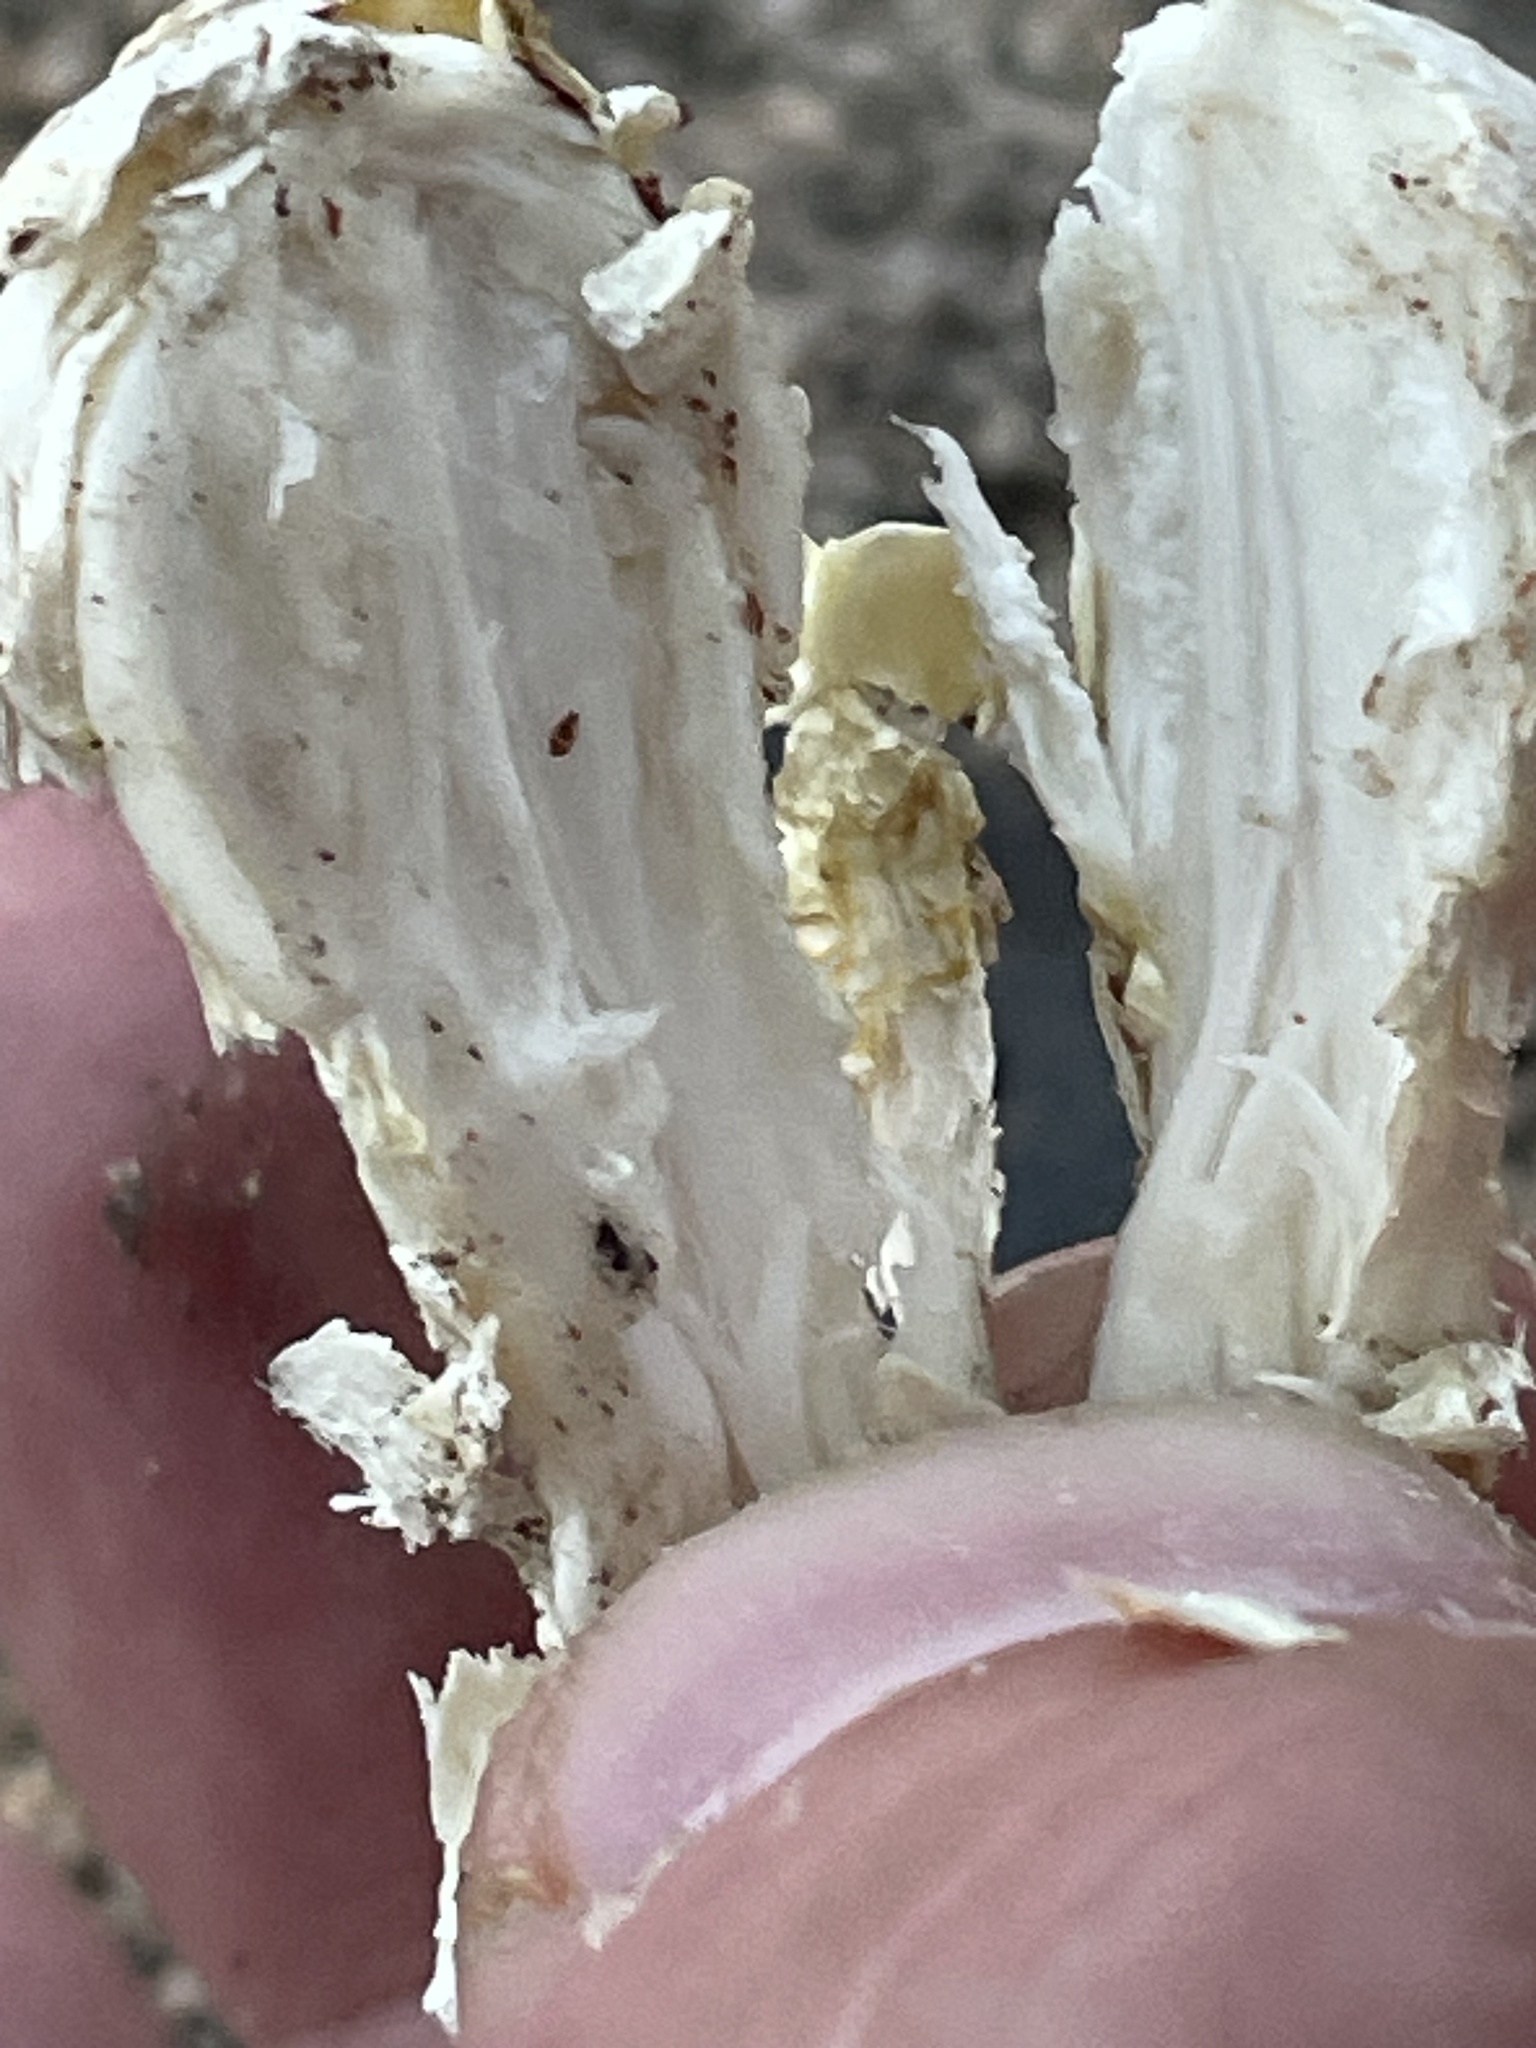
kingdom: Fungi
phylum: Basidiomycota
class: Agaricomycetes
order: Agaricales
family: Agaricaceae
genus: Podaxis
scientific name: Podaxis pistillaris
